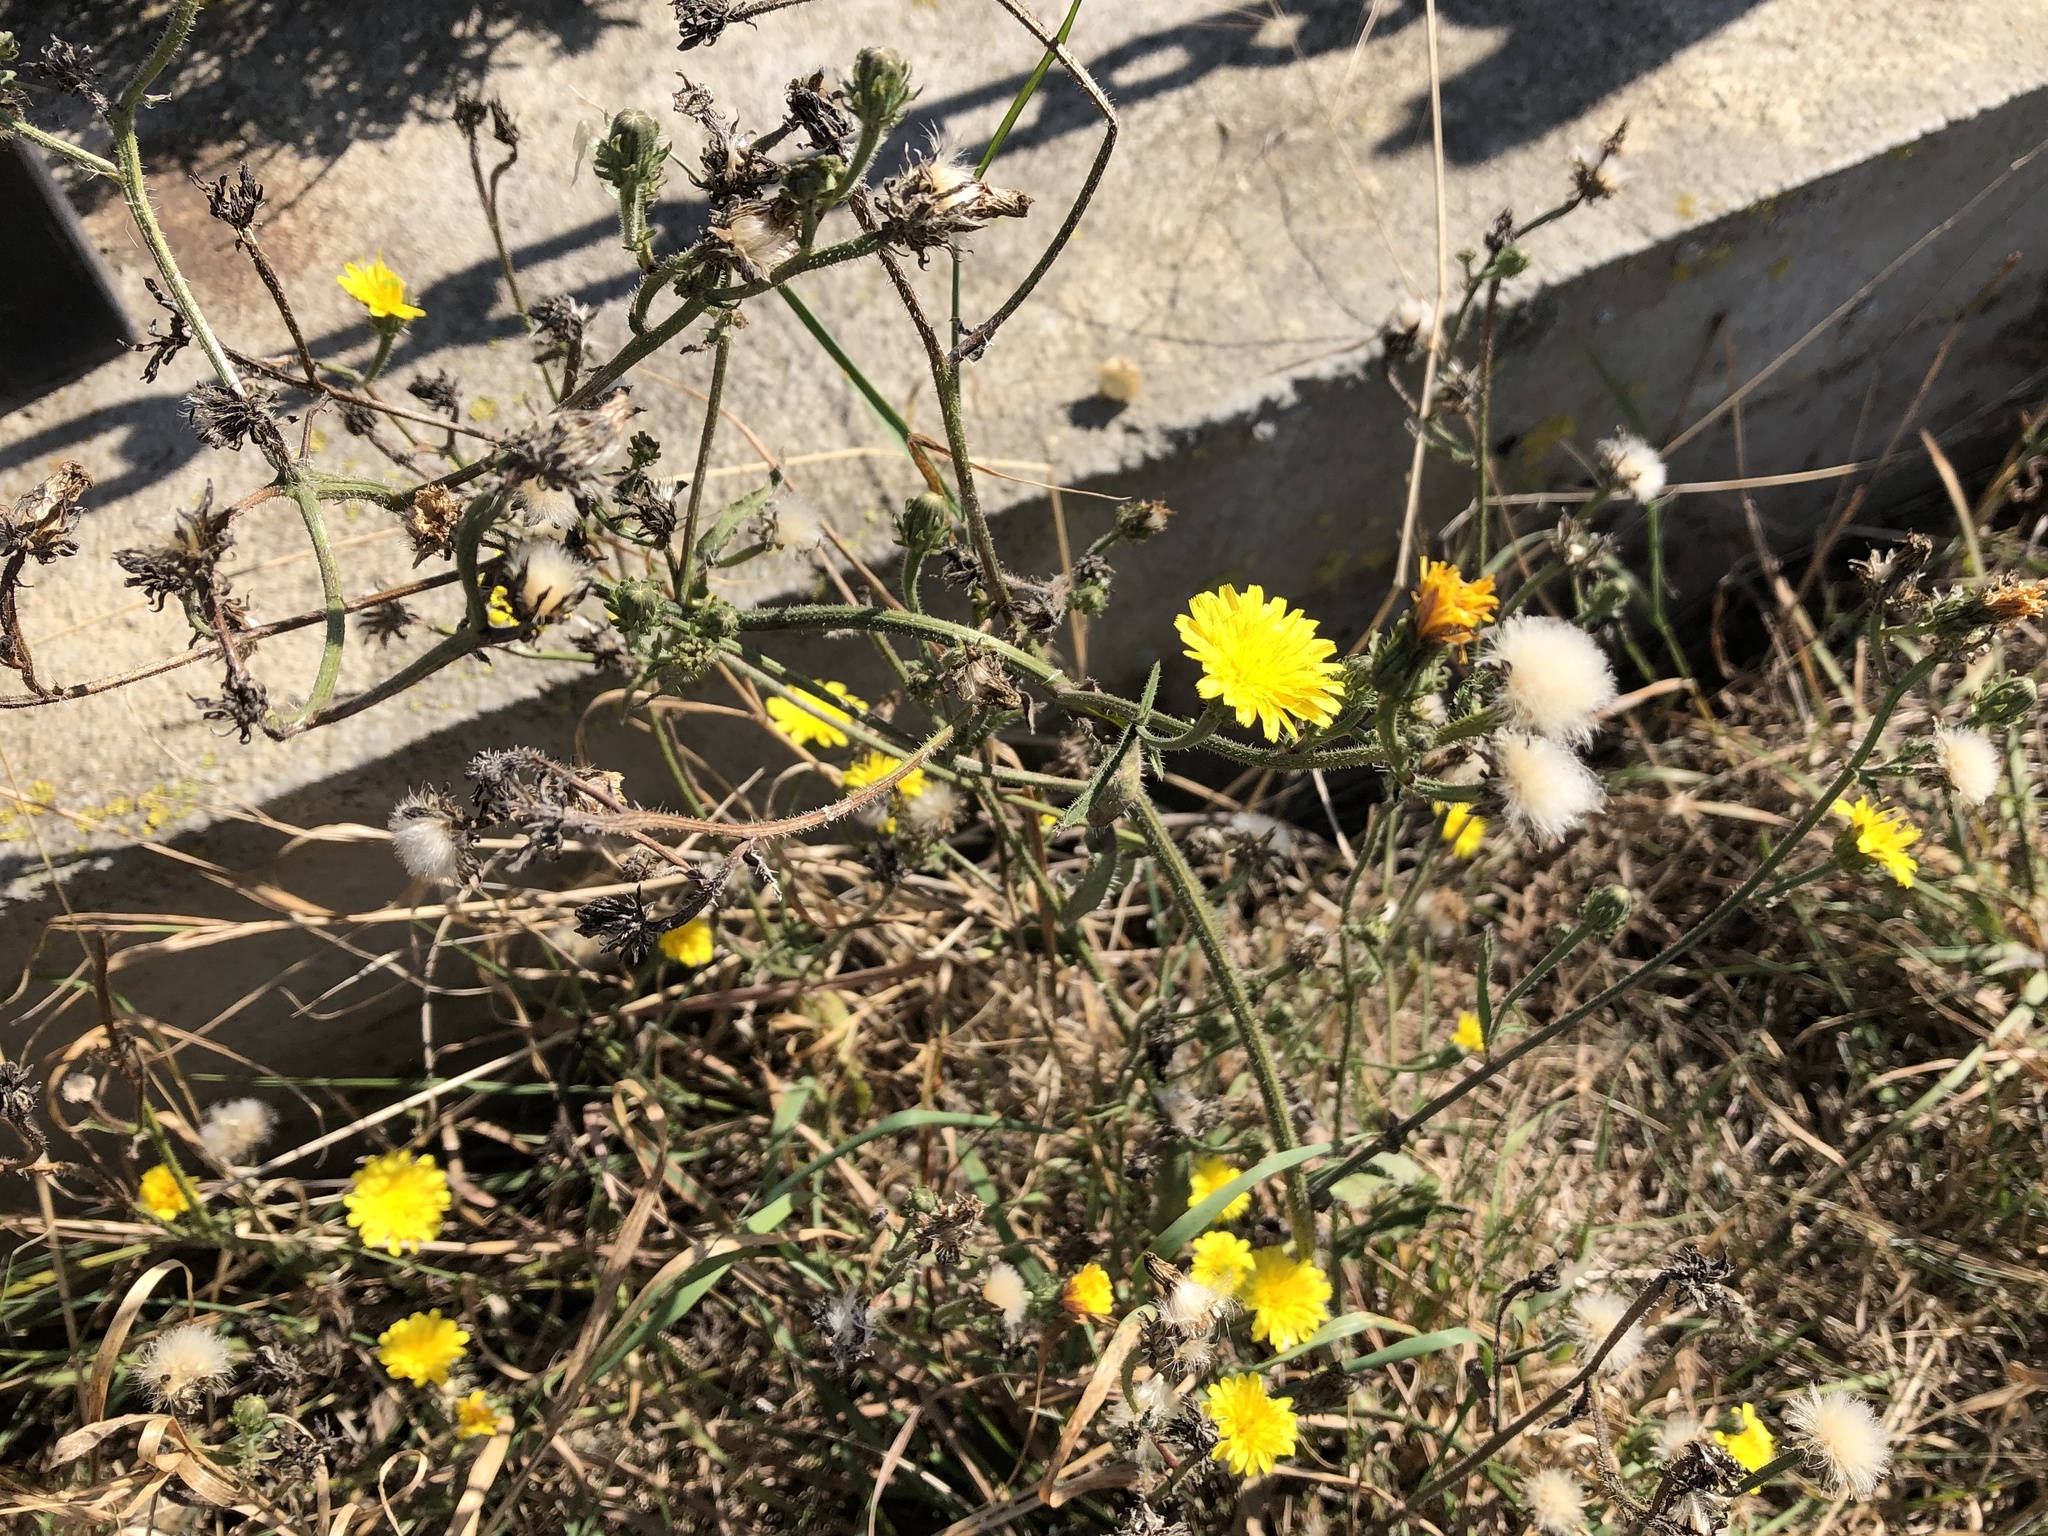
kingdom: Plantae
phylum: Tracheophyta
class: Magnoliopsida
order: Asterales
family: Asteraceae
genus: Picris
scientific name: Picris hieracioides
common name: Hawkweed oxtongue
